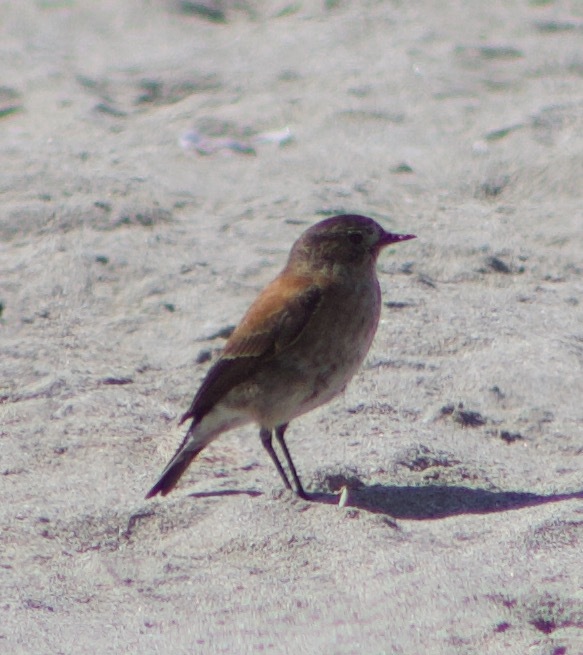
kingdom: Animalia
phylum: Chordata
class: Aves
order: Passeriformes
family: Tyrannidae
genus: Lessonia
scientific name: Lessonia rufa
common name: Austral negrito
